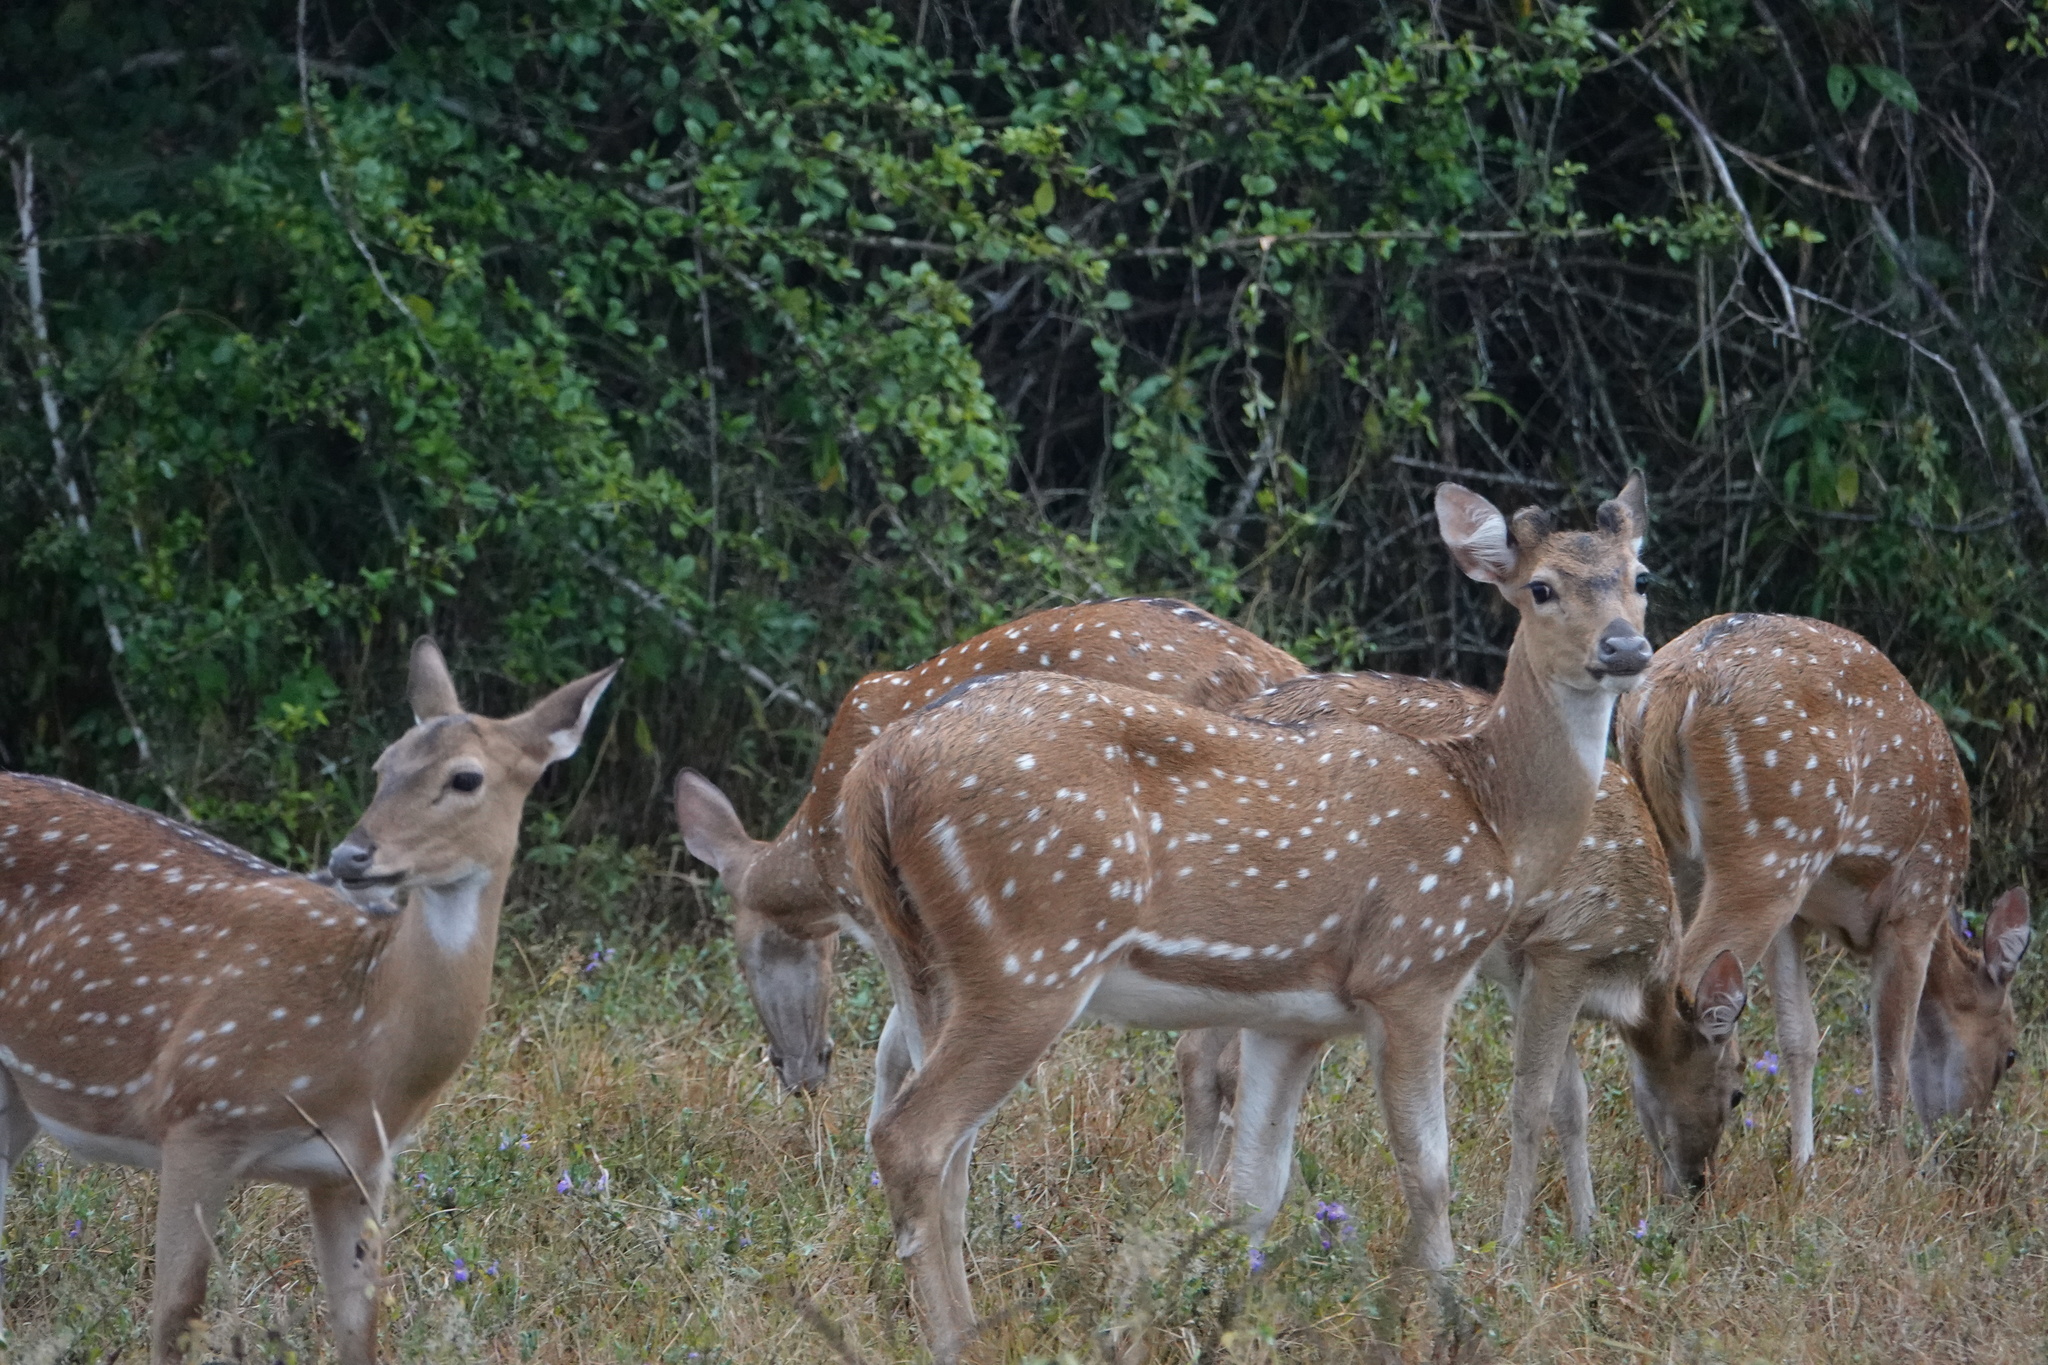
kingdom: Animalia
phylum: Chordata
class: Mammalia
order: Artiodactyla
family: Cervidae
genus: Axis
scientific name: Axis axis
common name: Chital
